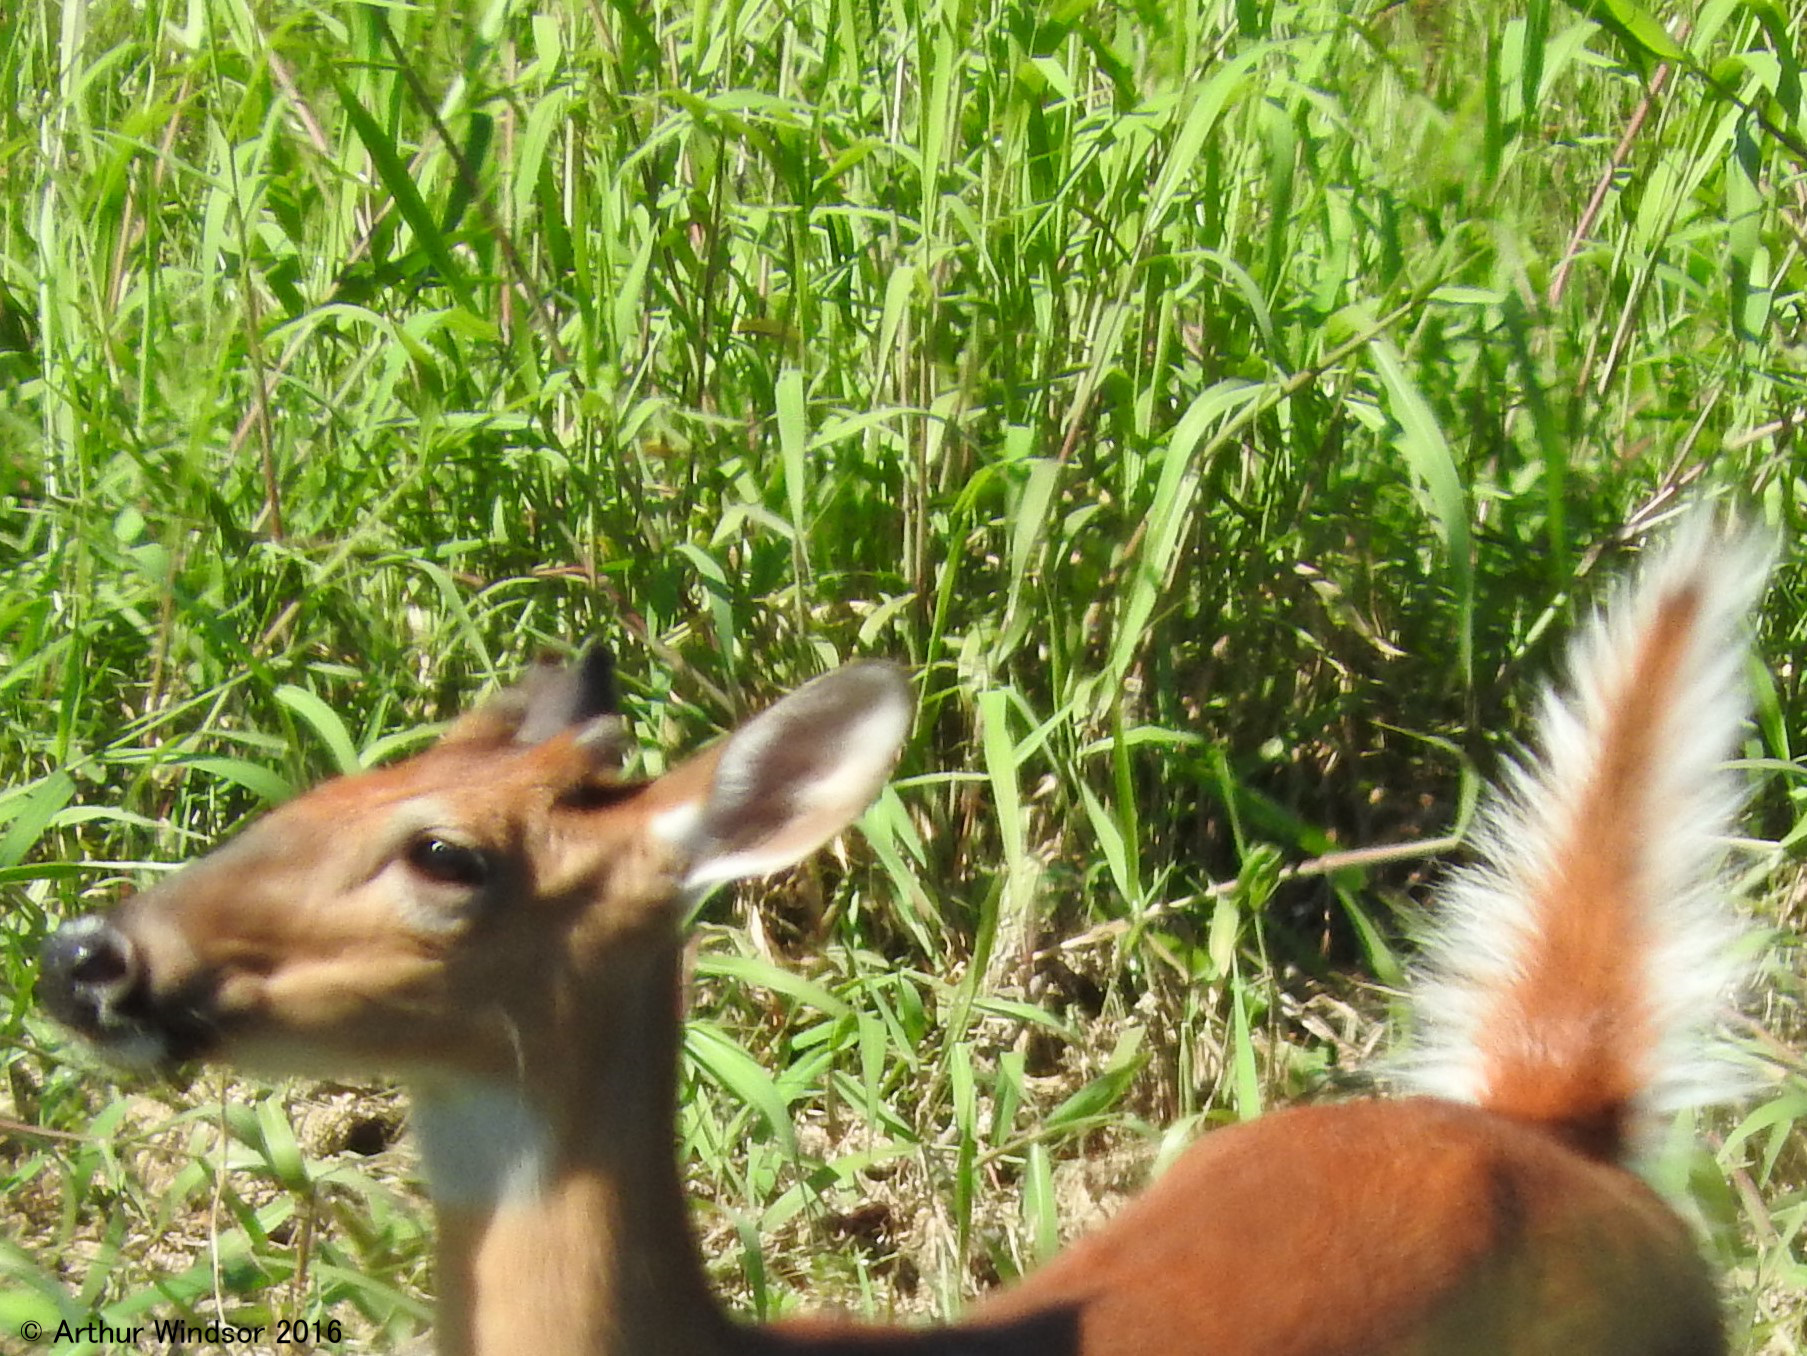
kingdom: Animalia
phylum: Chordata
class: Mammalia
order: Artiodactyla
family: Cervidae
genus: Odocoileus
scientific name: Odocoileus virginianus
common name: White-tailed deer
